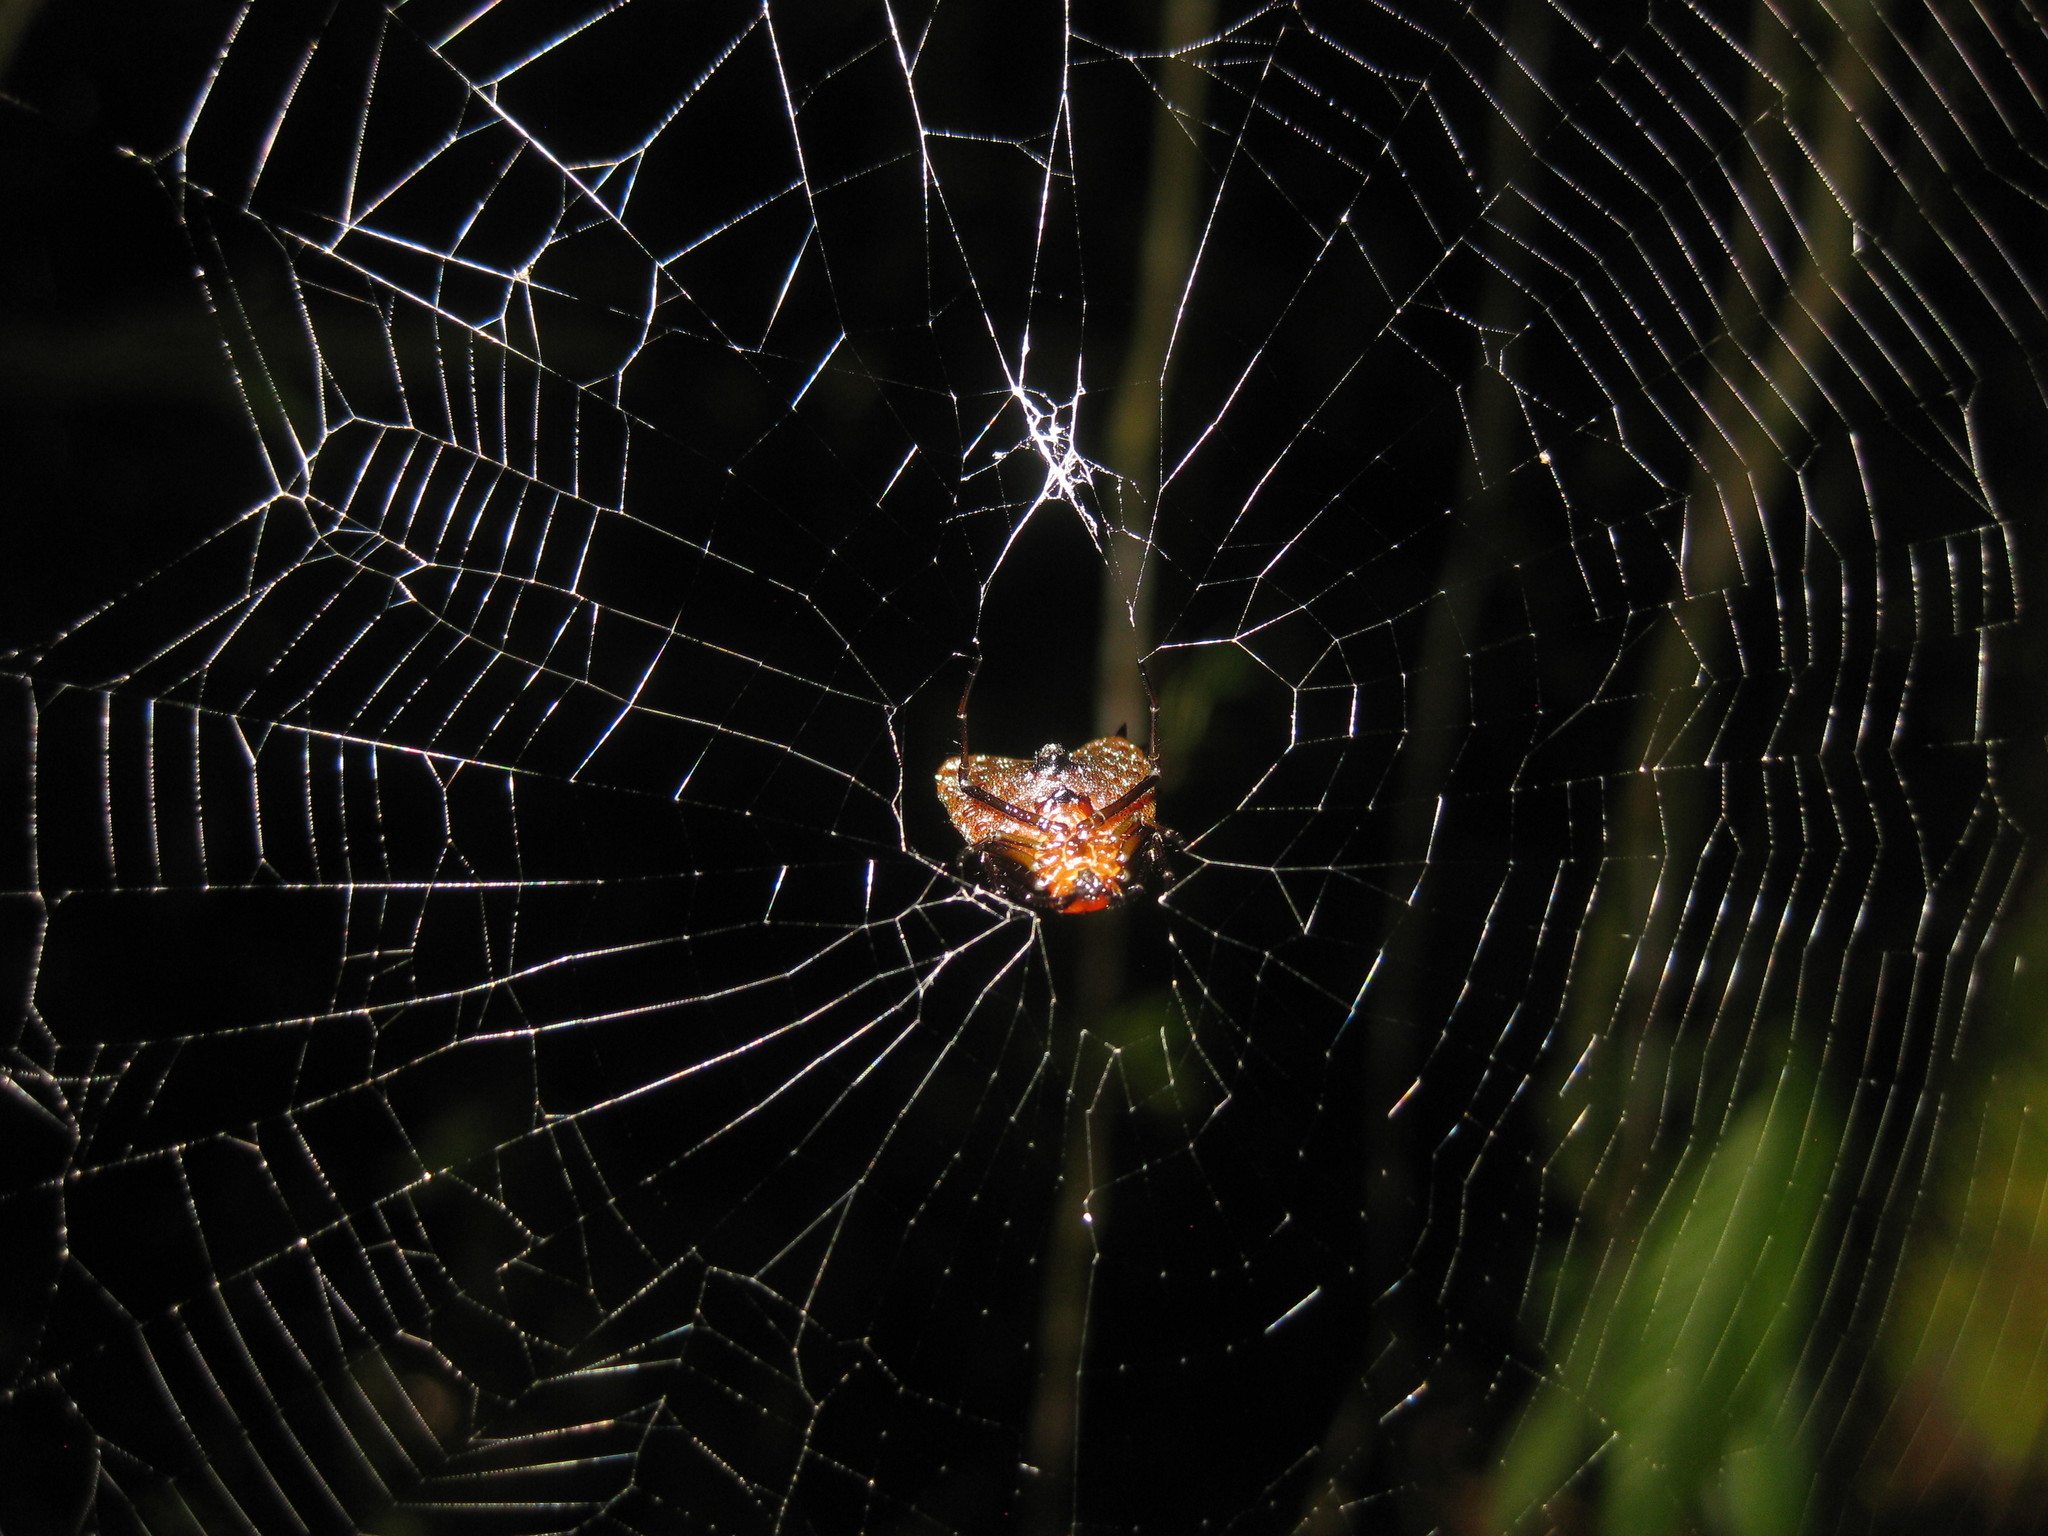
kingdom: Animalia
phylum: Arthropoda
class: Arachnida
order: Araneae
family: Araneidae
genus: Micrathena
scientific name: Micrathena clypeata
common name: Orb weavers
